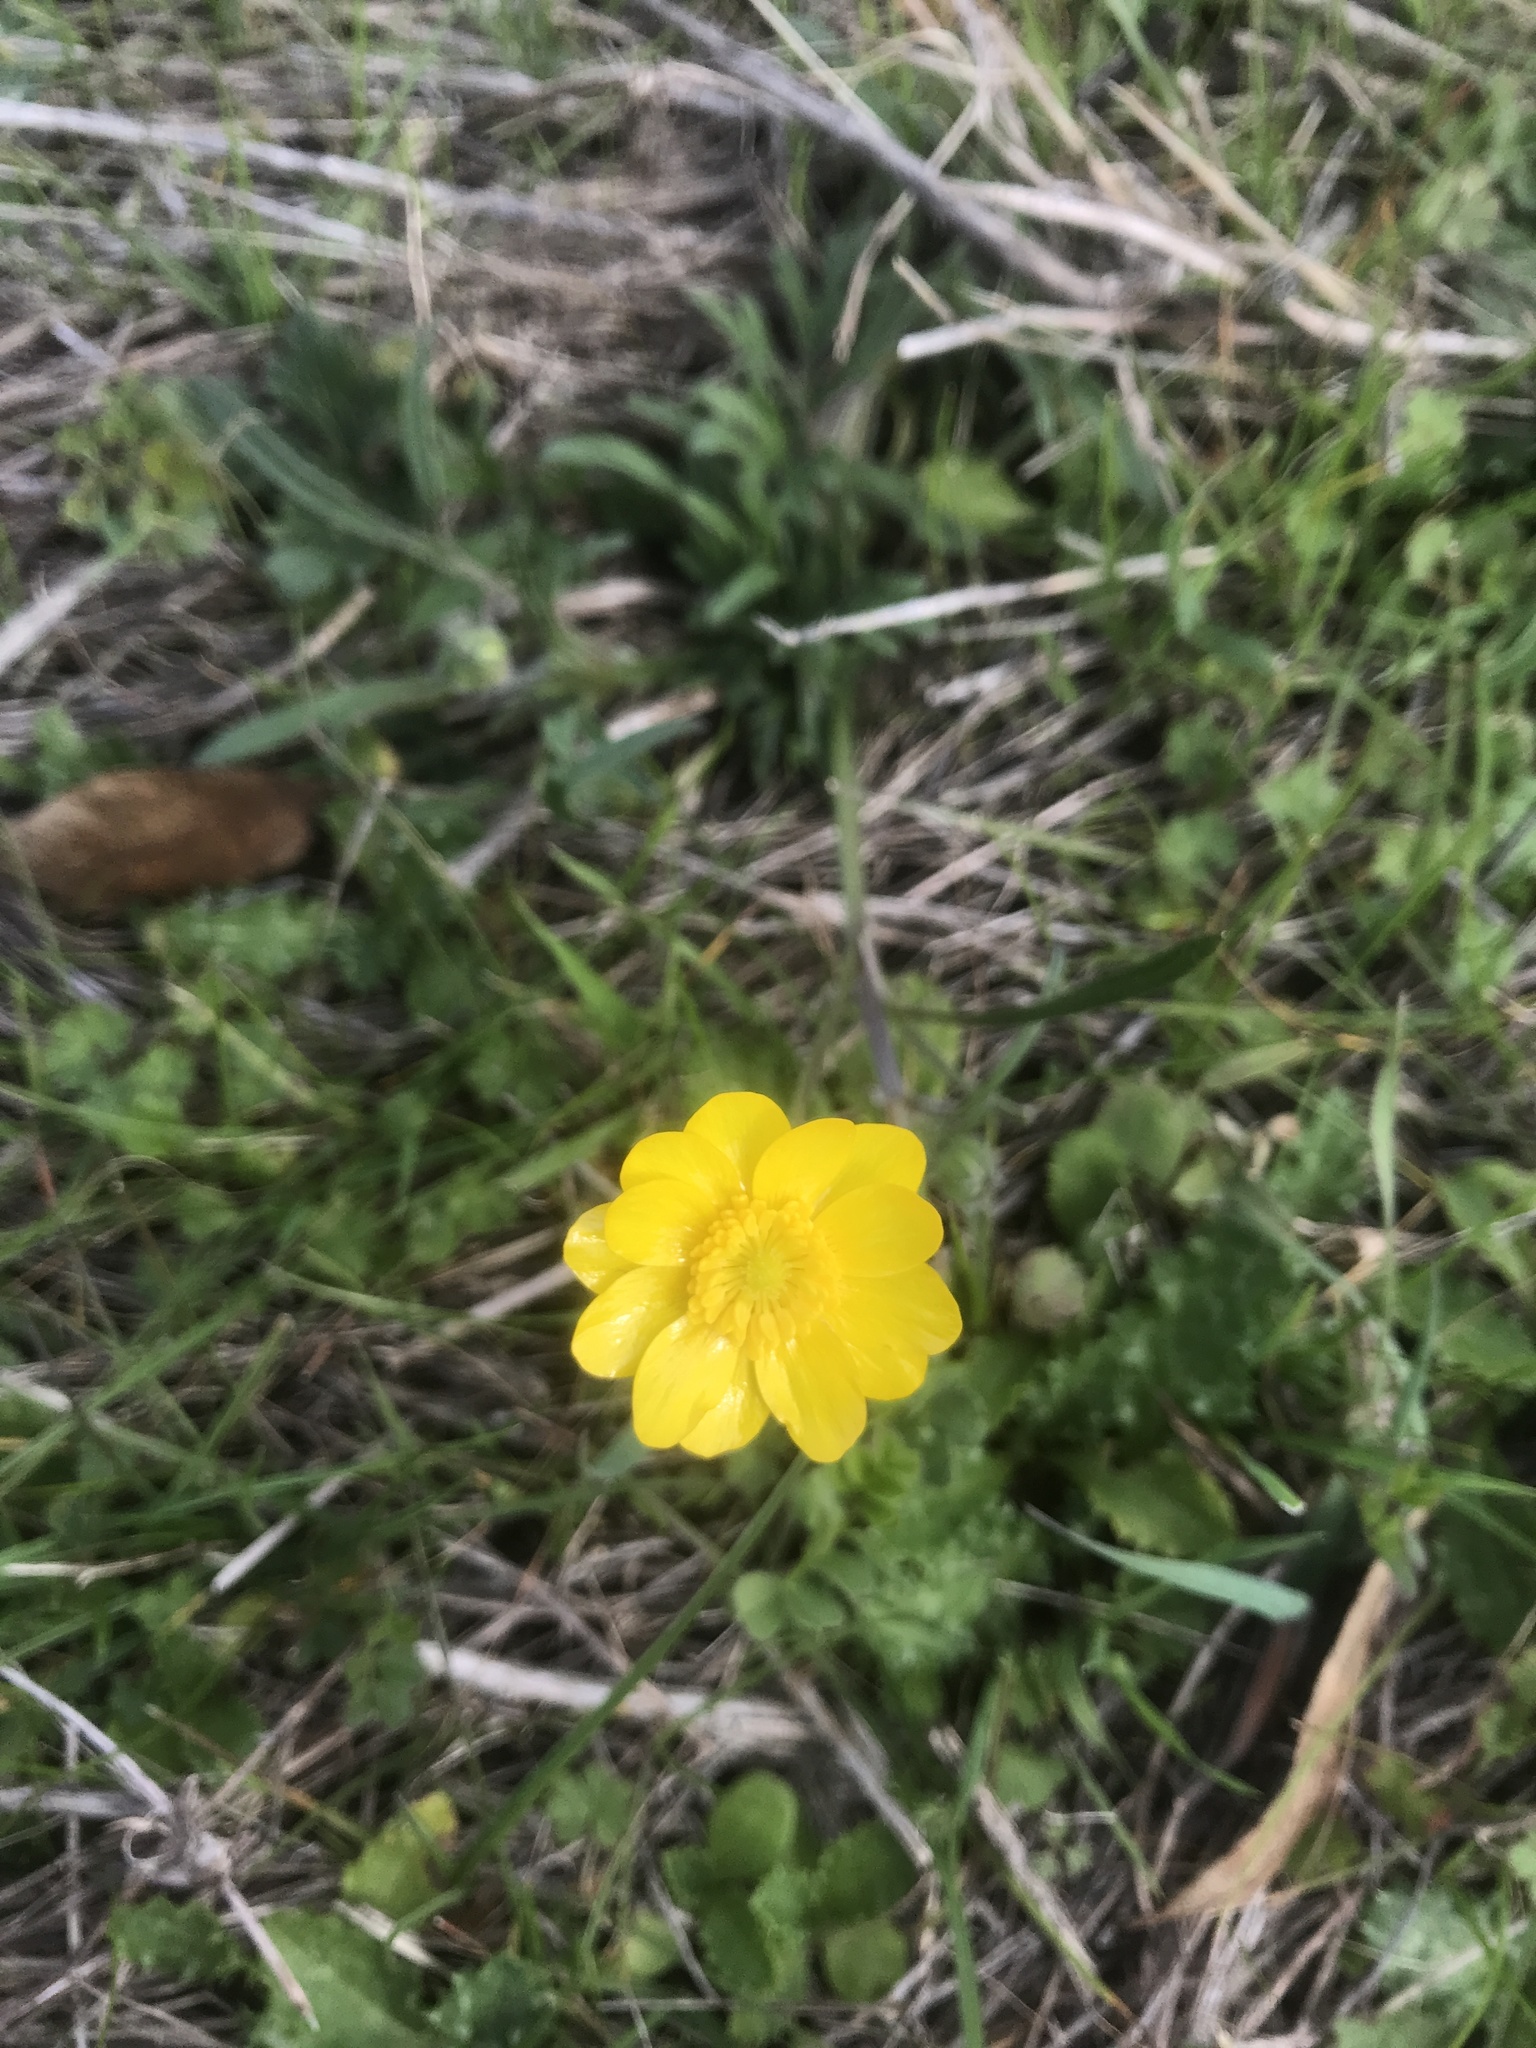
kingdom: Plantae
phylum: Tracheophyta
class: Magnoliopsida
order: Ranunculales
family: Ranunculaceae
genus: Ranunculus
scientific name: Ranunculus californicus
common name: California buttercup
